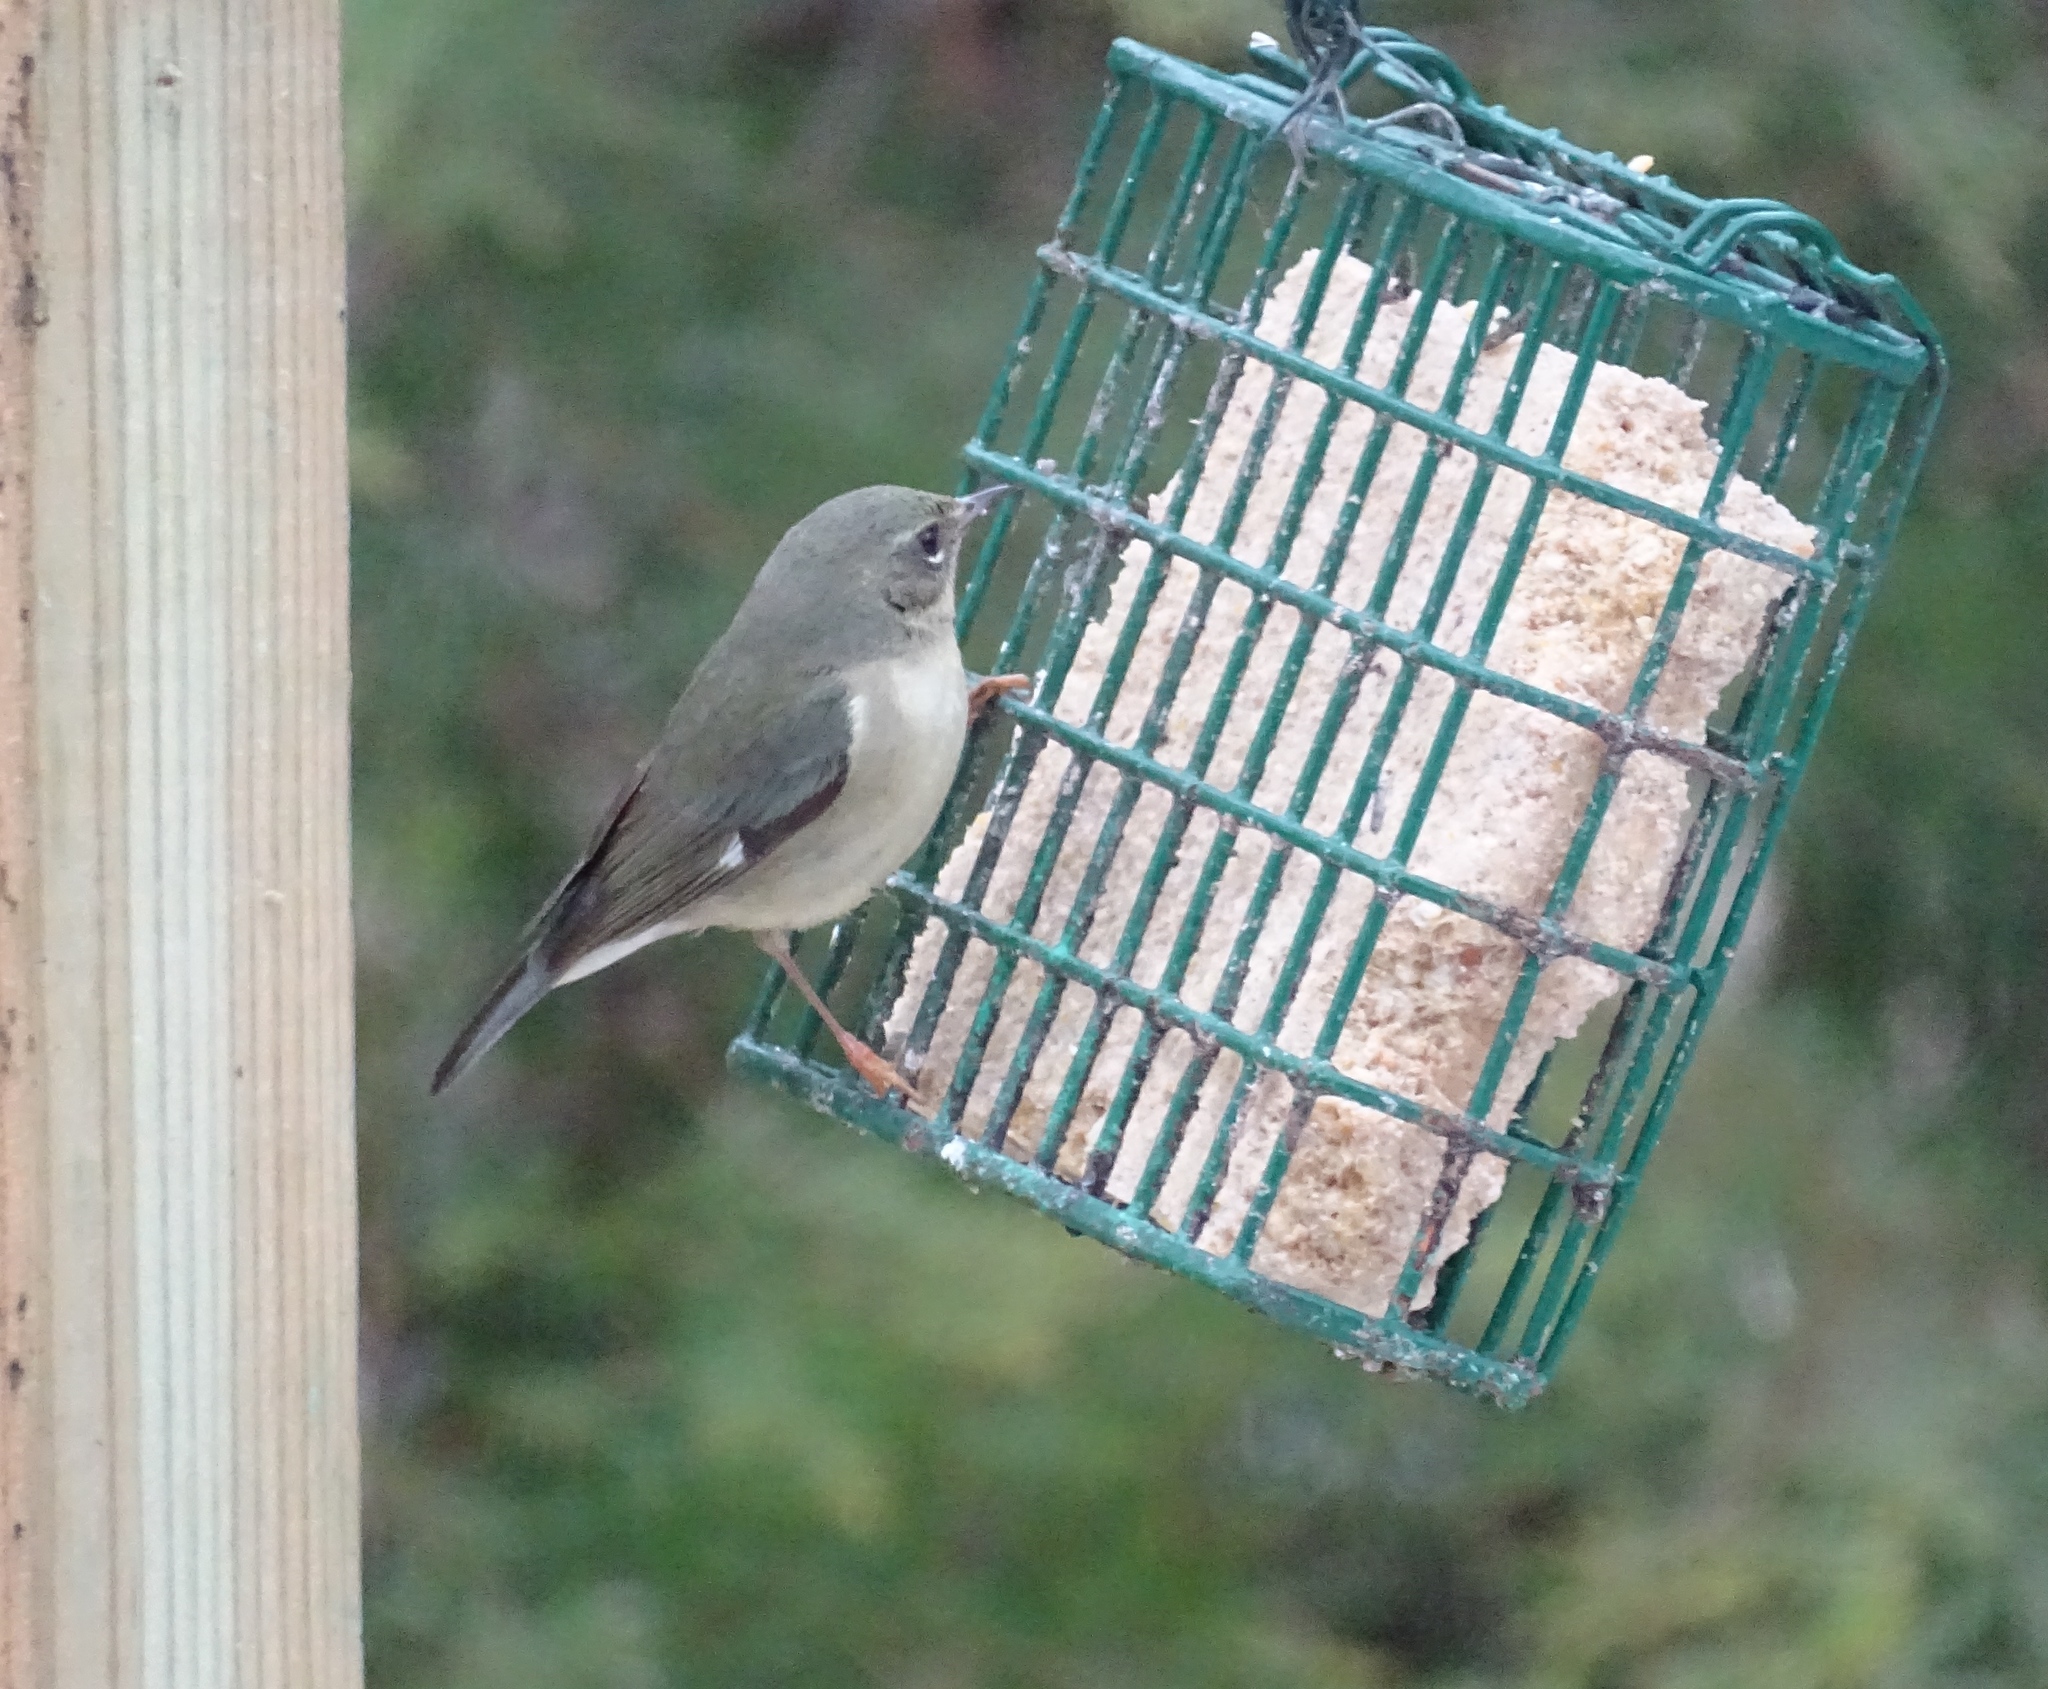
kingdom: Animalia
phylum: Chordata
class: Aves
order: Passeriformes
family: Parulidae
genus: Setophaga
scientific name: Setophaga caerulescens
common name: Black-throated blue warbler
